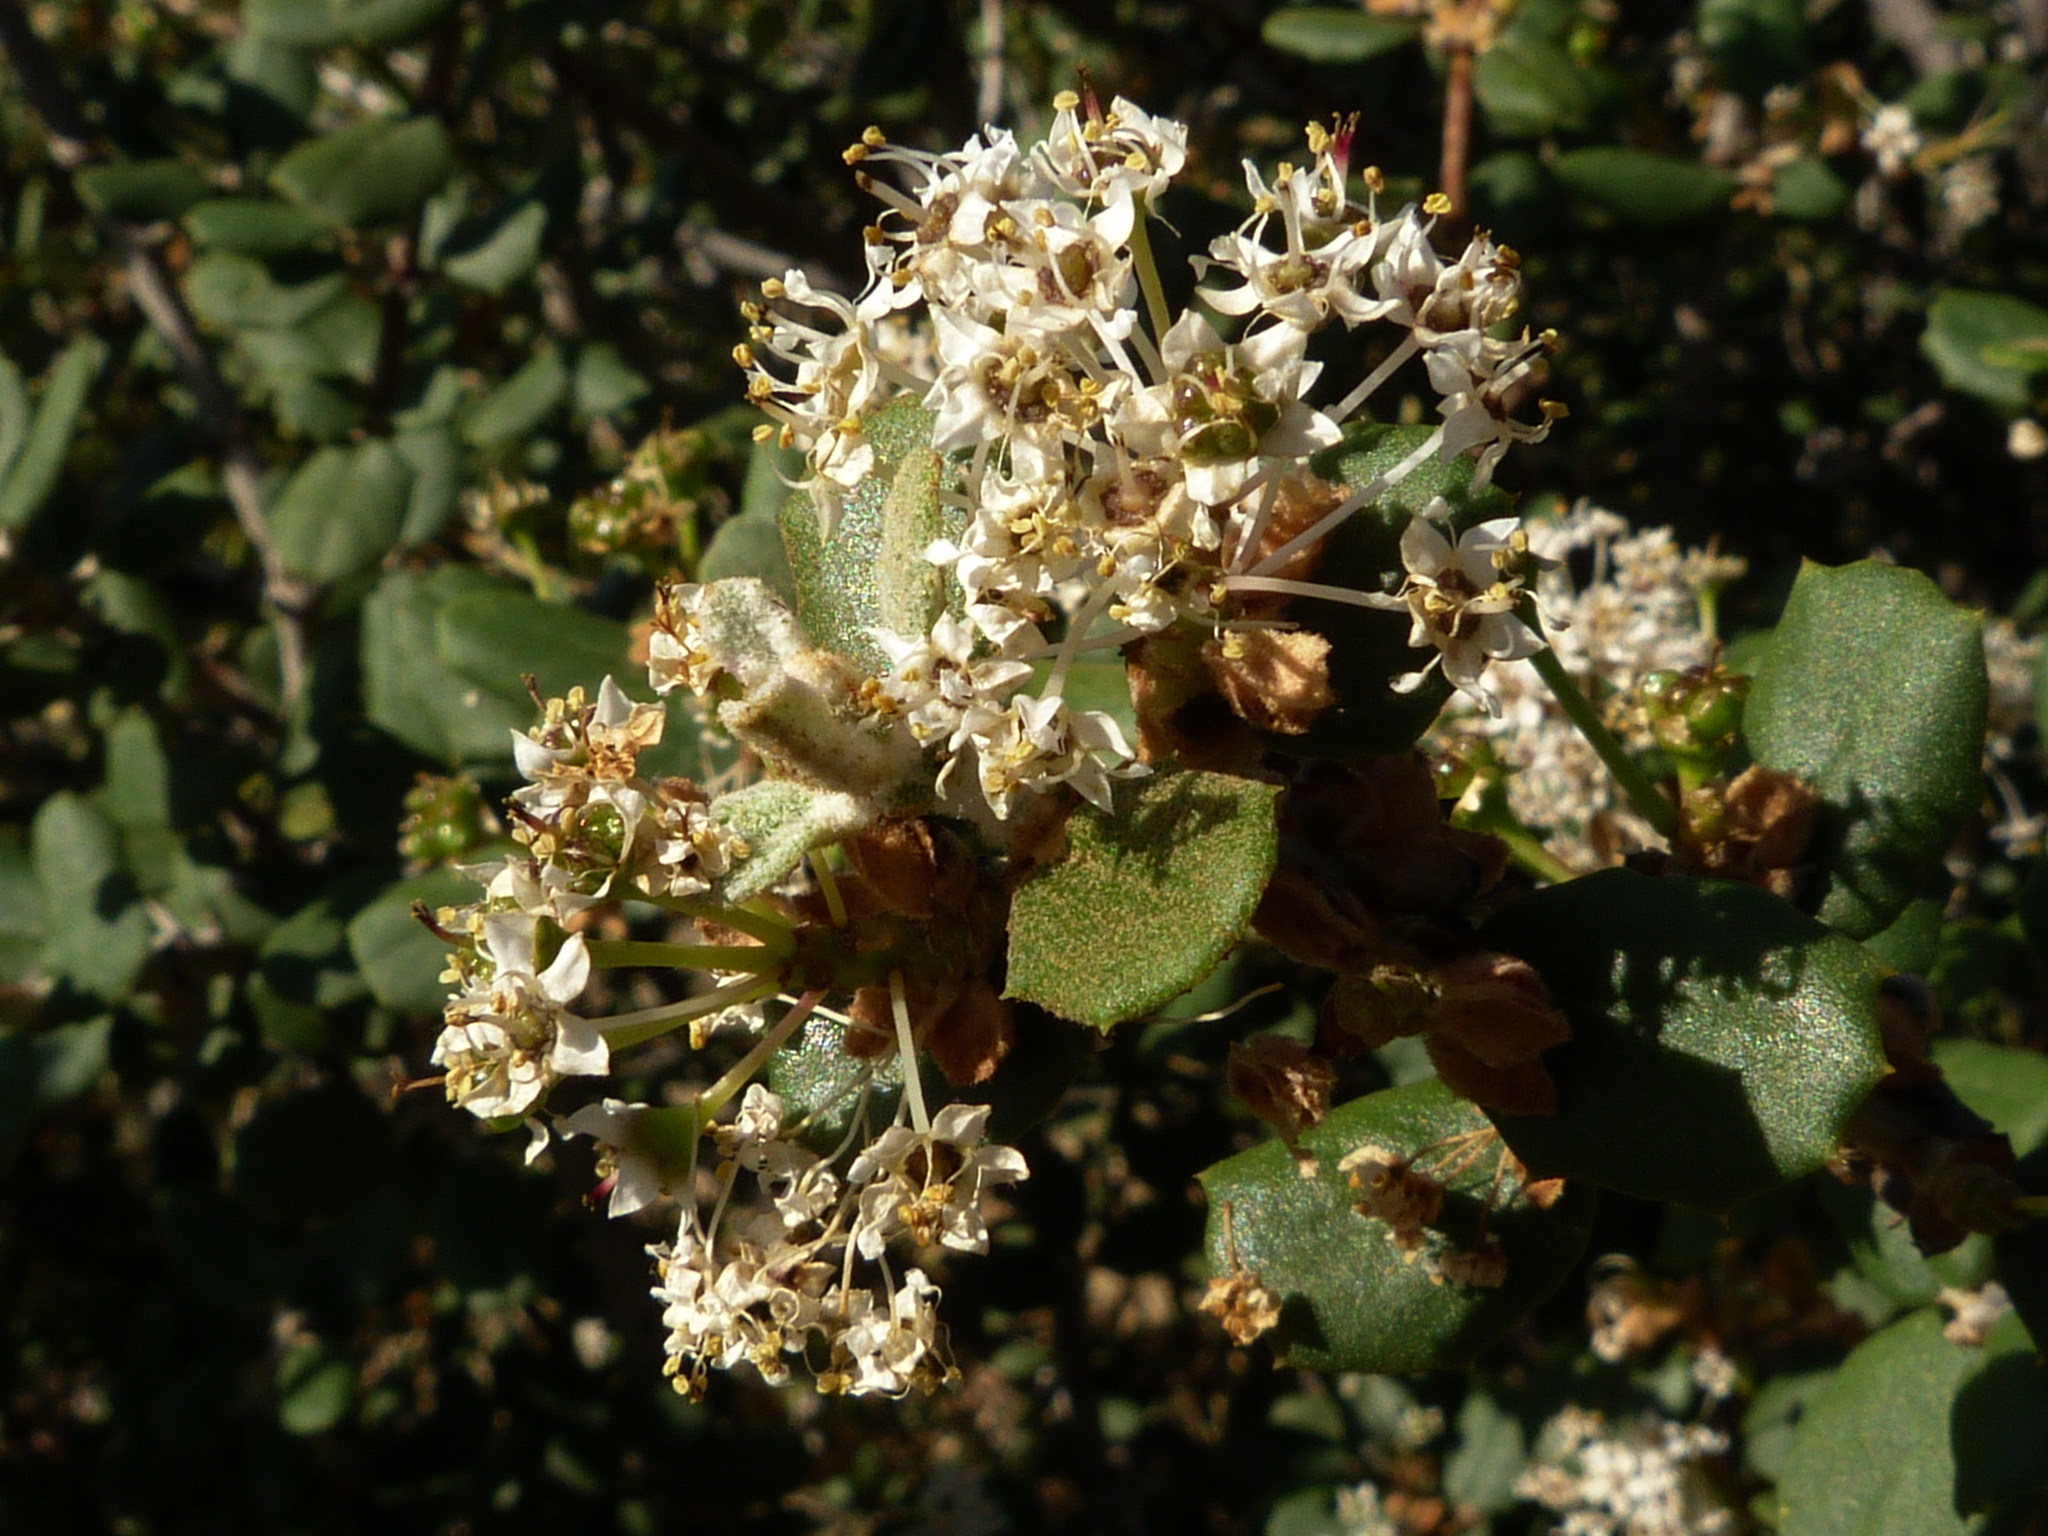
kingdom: Plantae
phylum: Tracheophyta
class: Magnoliopsida
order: Rosales
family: Rhamnaceae
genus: Ceanothus
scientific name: Ceanothus crassifolius
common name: Hoaryleaf ceanothus
